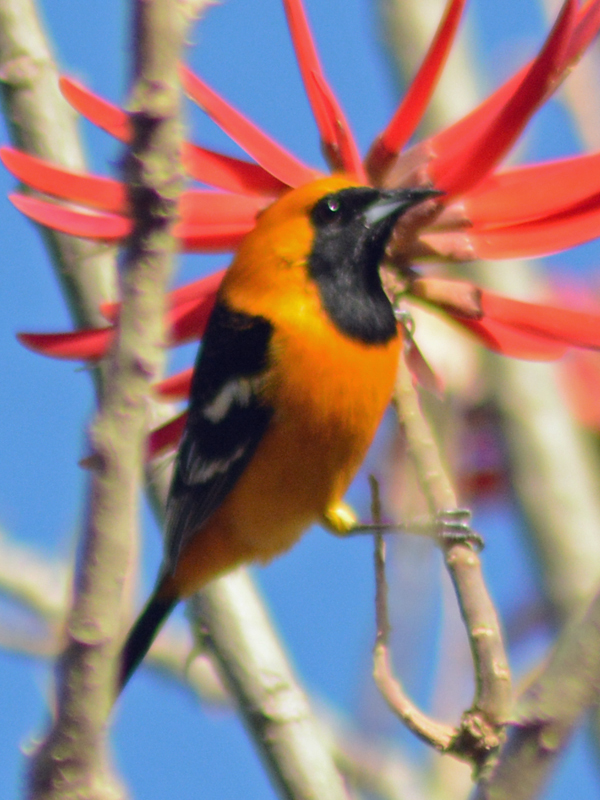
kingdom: Animalia
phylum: Chordata
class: Aves
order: Passeriformes
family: Icteridae
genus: Icterus
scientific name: Icterus cucullatus
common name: Hooded oriole
